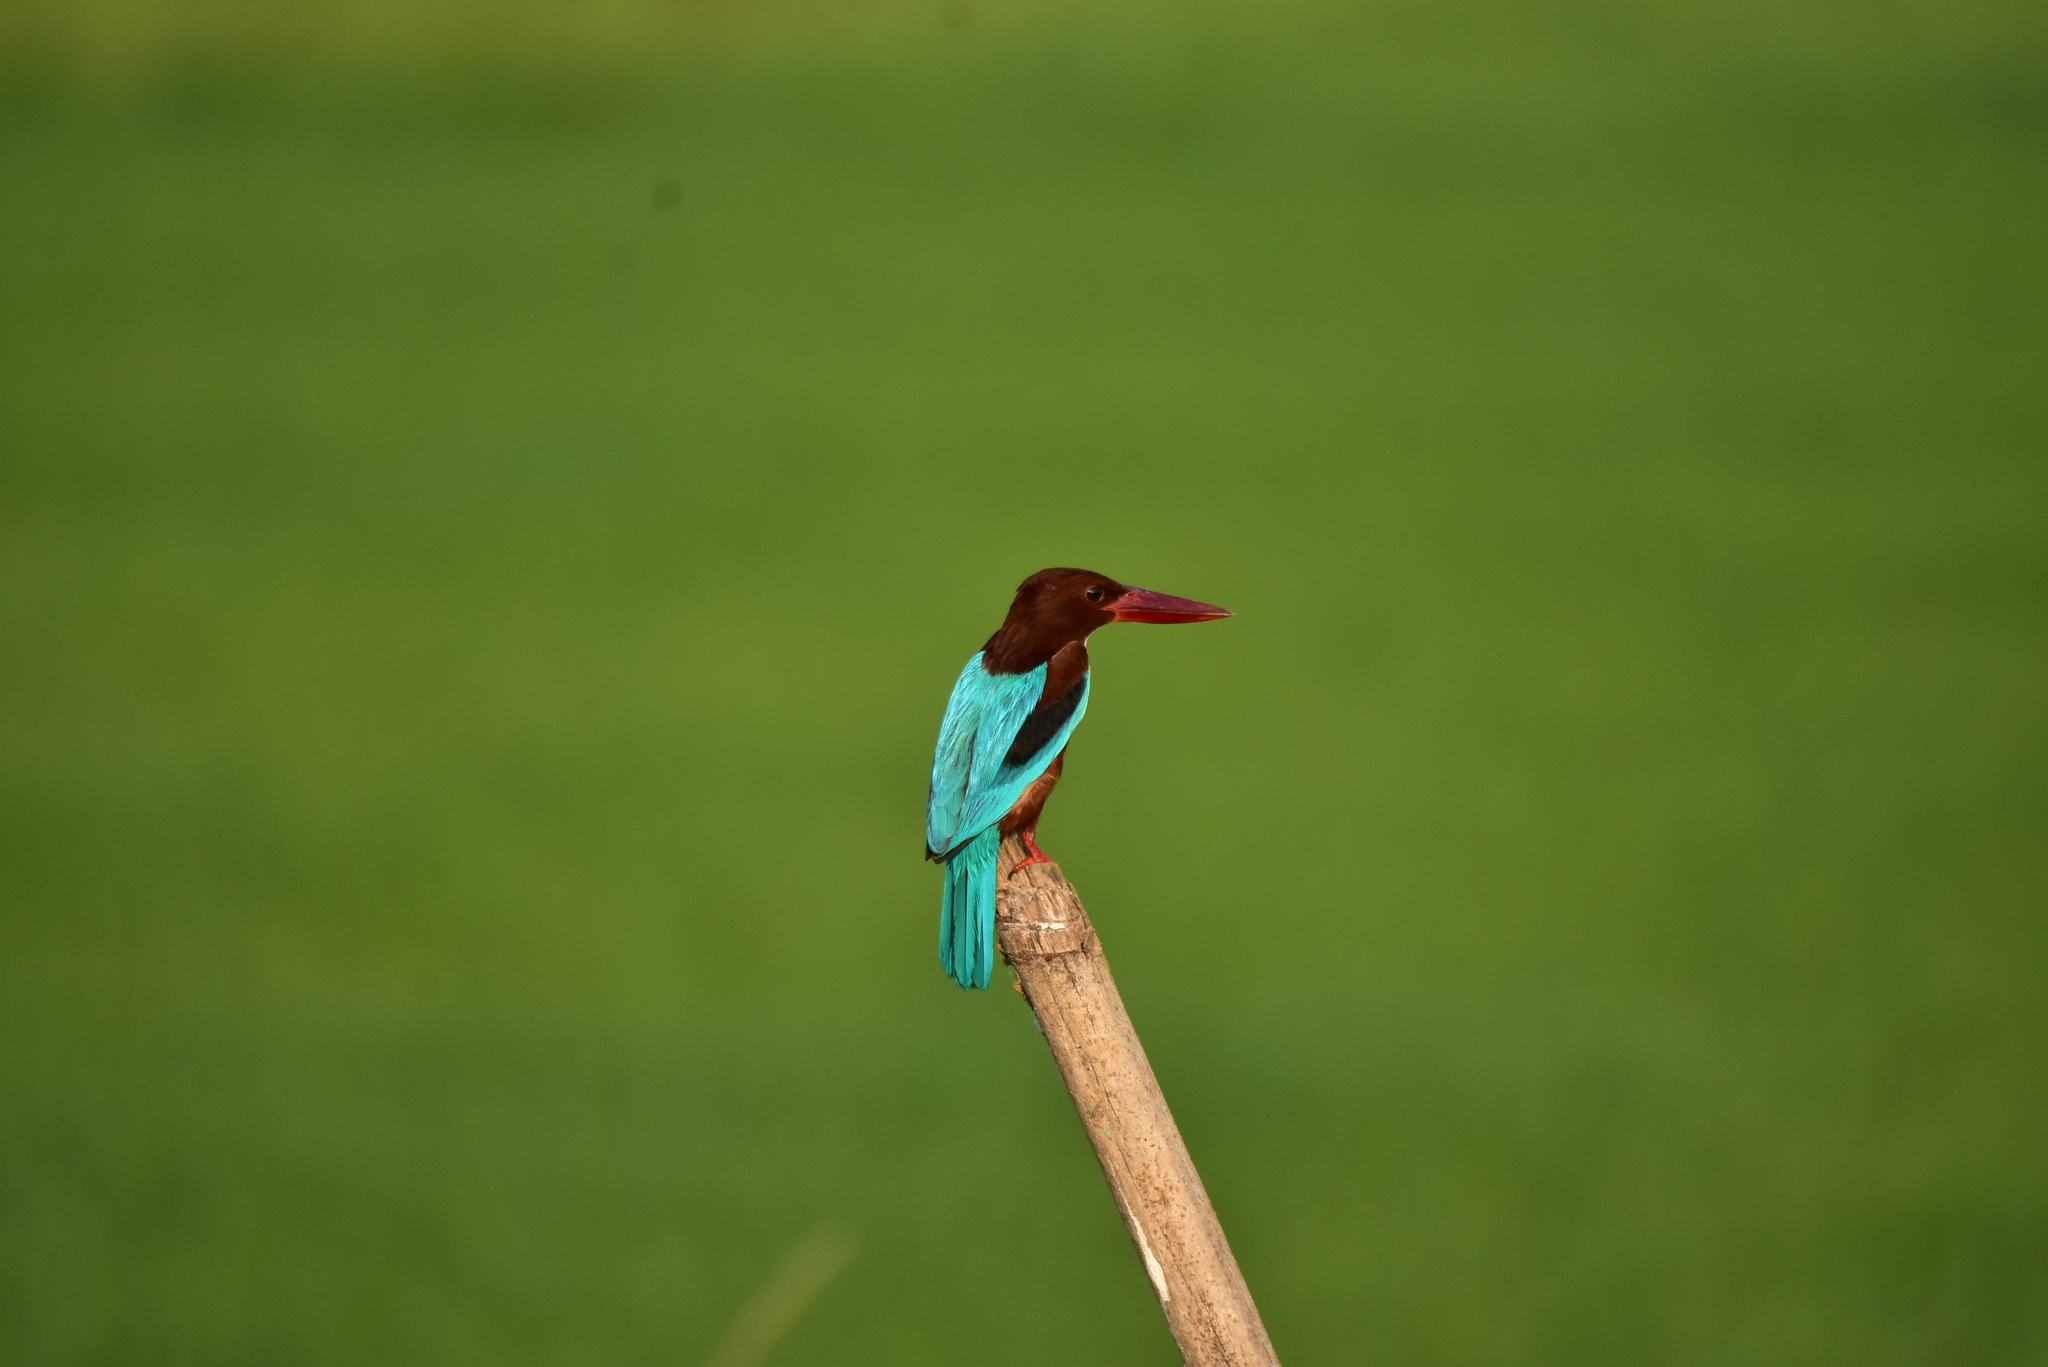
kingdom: Animalia
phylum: Chordata
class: Aves
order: Coraciiformes
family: Alcedinidae
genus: Halcyon
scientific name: Halcyon smyrnensis
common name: White-throated kingfisher
